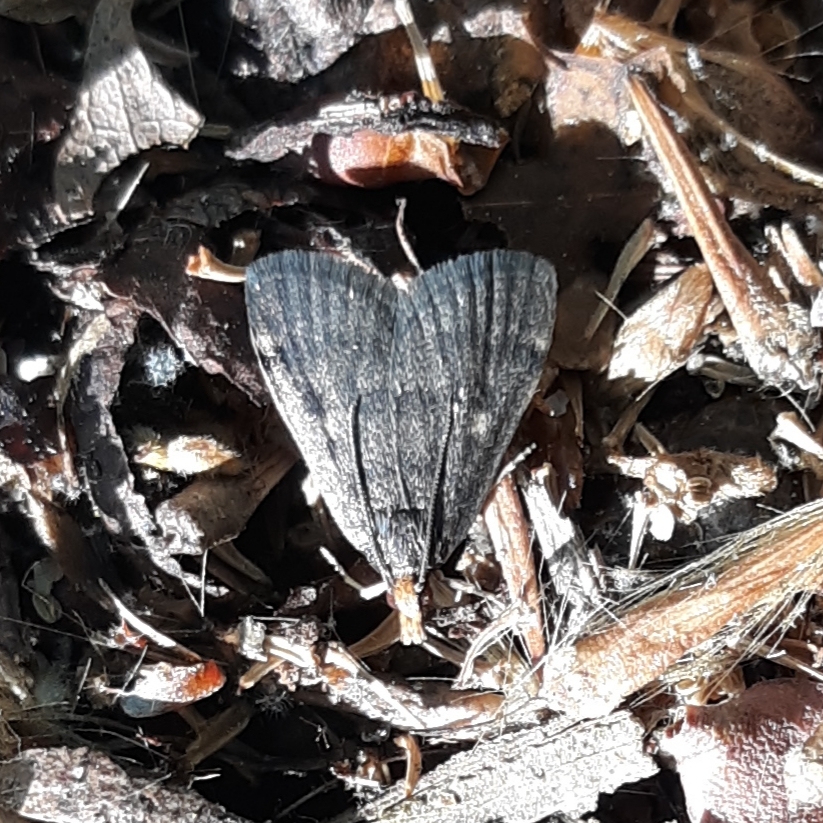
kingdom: Animalia
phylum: Arthropoda
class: Insecta
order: Lepidoptera
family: Crambidae
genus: Pyrausta
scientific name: Pyrausta merrickalis
